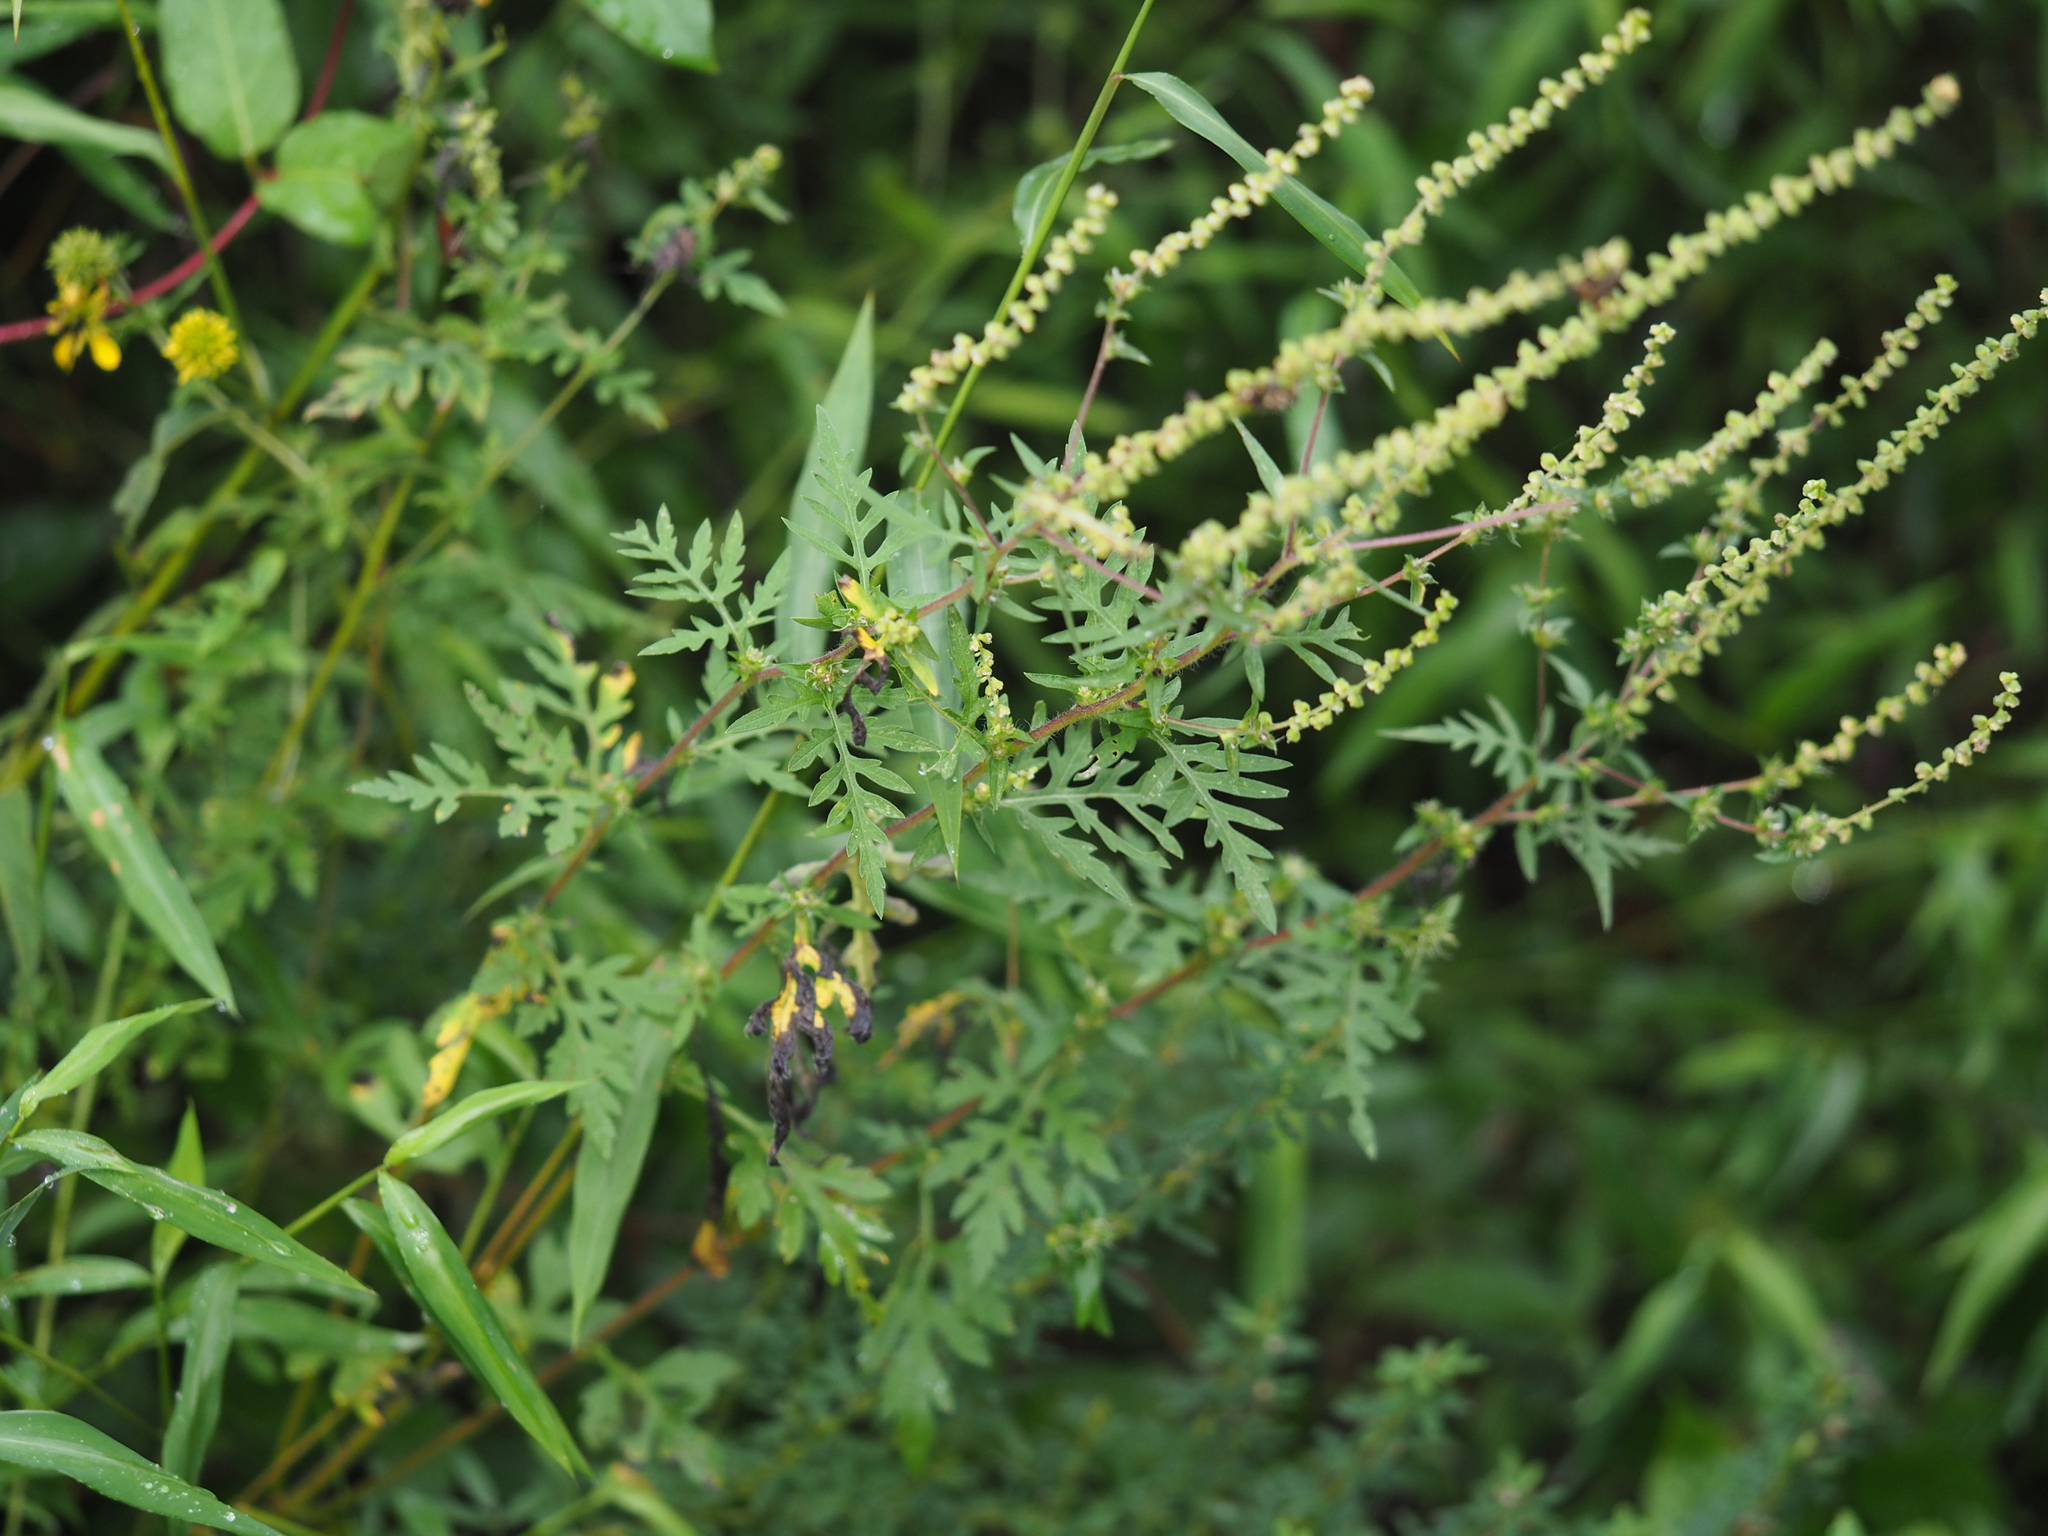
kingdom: Plantae
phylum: Tracheophyta
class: Magnoliopsida
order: Asterales
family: Asteraceae
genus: Ambrosia
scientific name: Ambrosia artemisiifolia
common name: Annual ragweed
